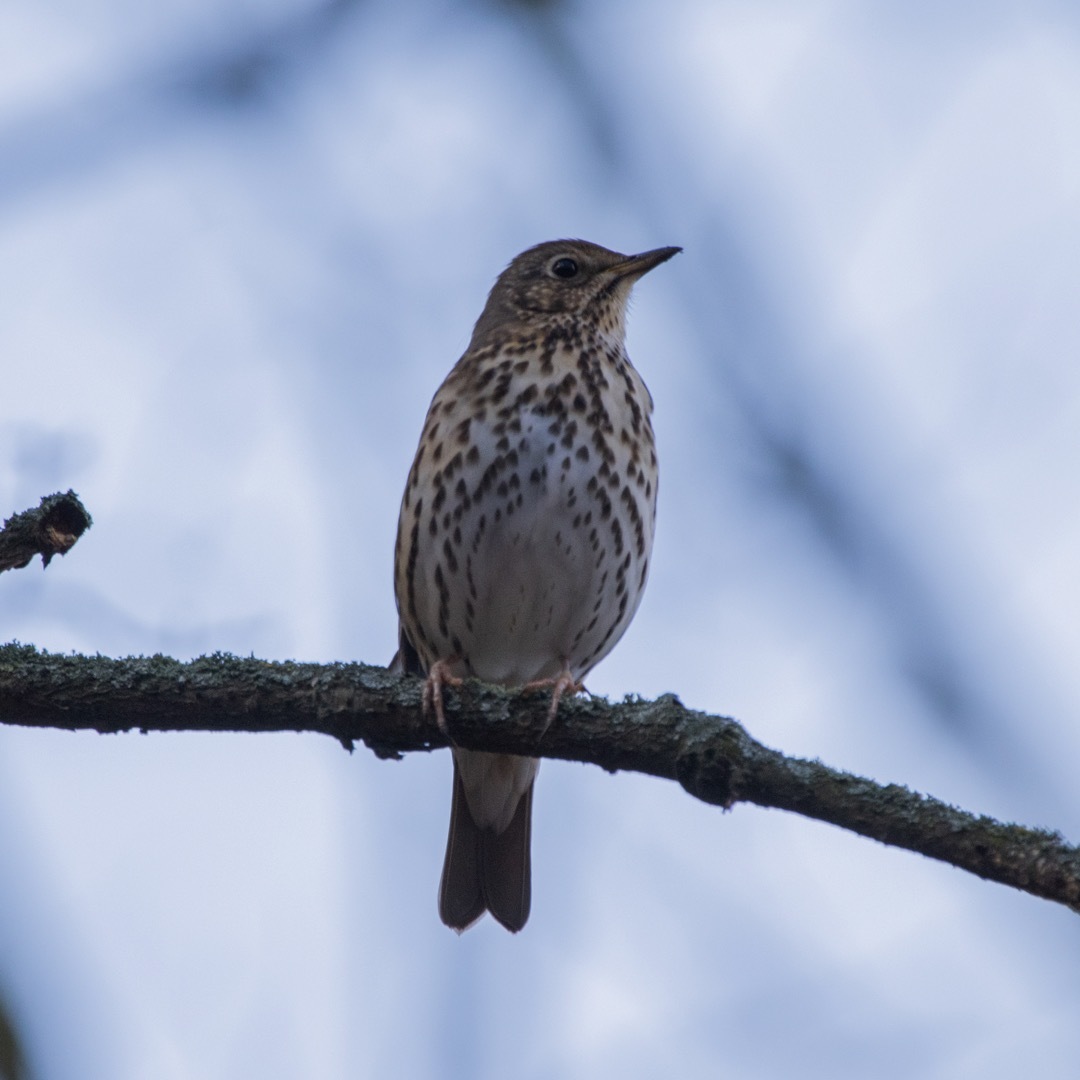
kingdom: Animalia
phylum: Chordata
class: Aves
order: Passeriformes
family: Turdidae
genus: Turdus
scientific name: Turdus philomelos
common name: Song thrush
